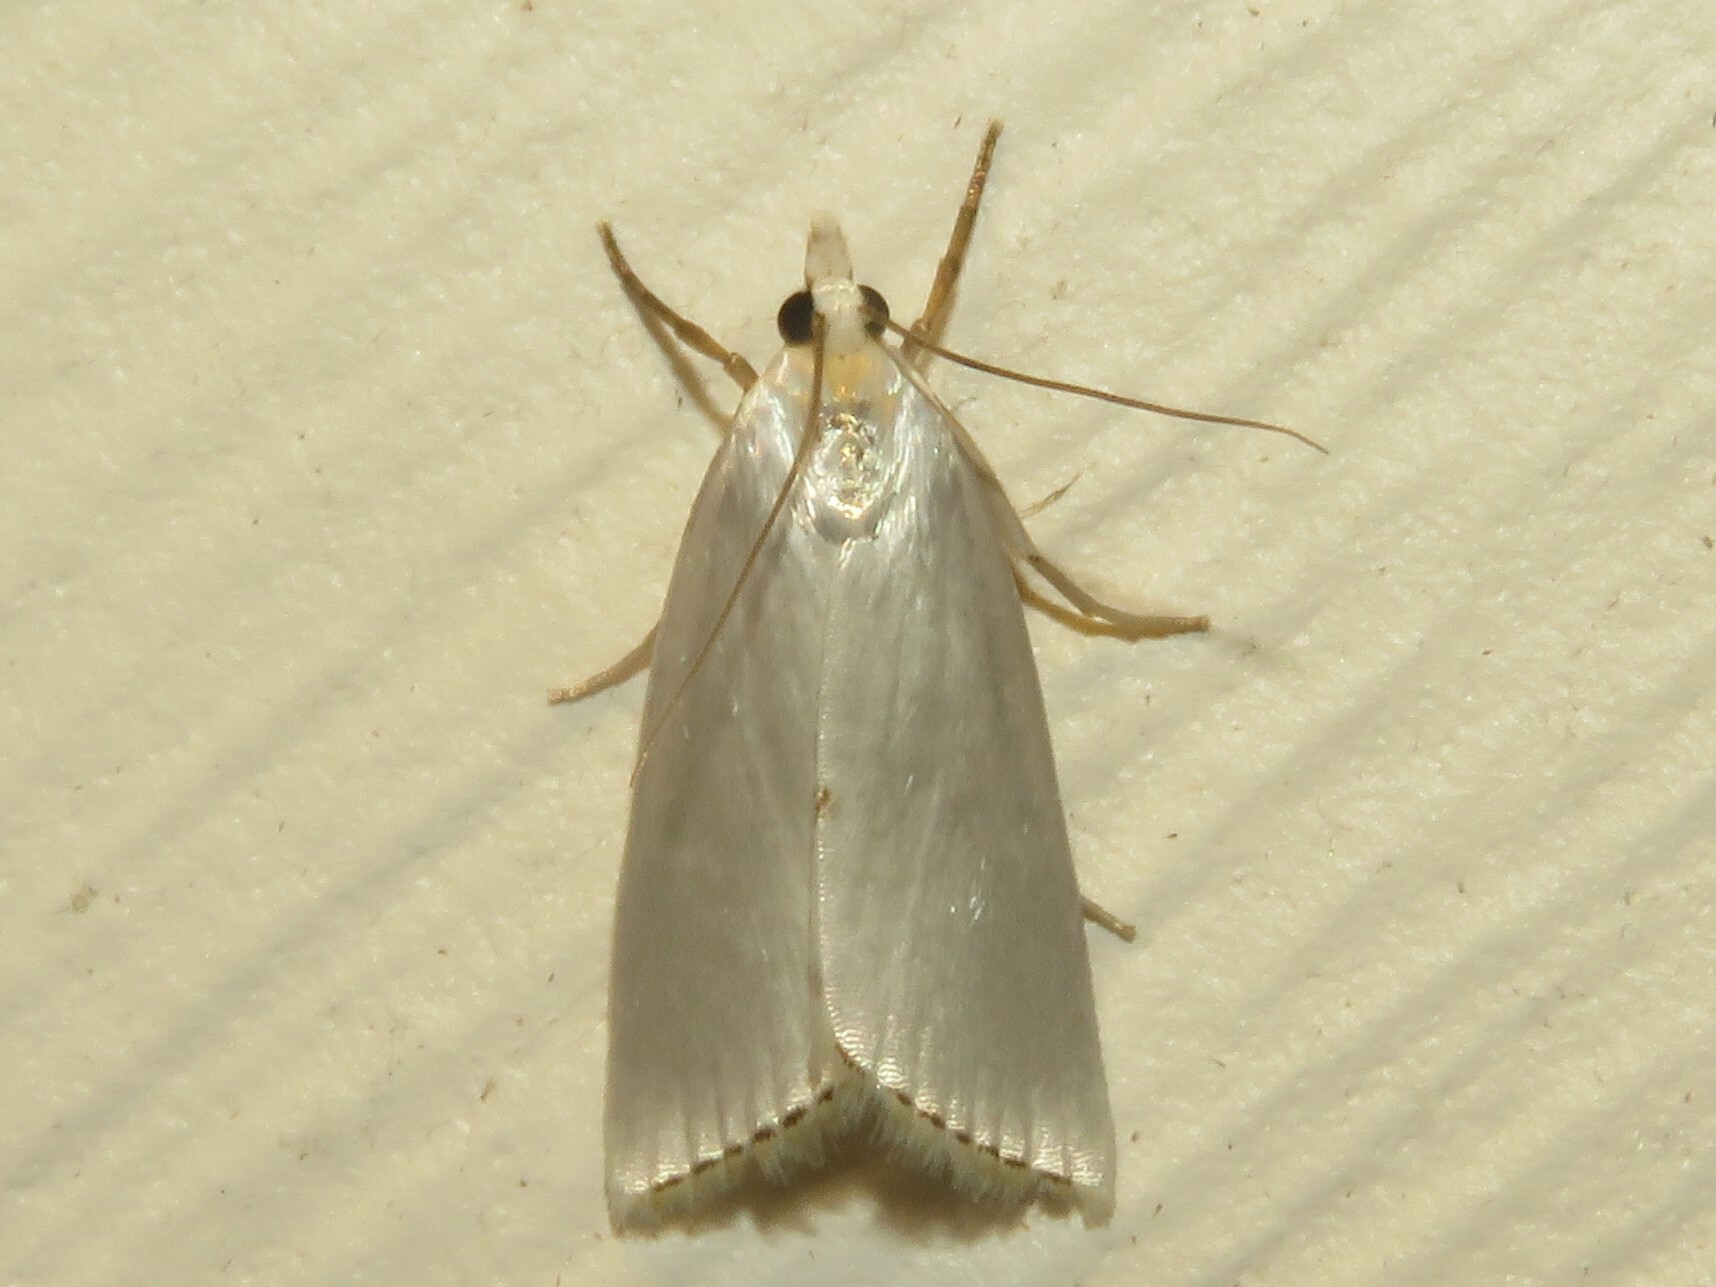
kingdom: Animalia
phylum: Arthropoda
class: Insecta
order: Lepidoptera
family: Crambidae
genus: Argyria
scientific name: Argyria nivalis
